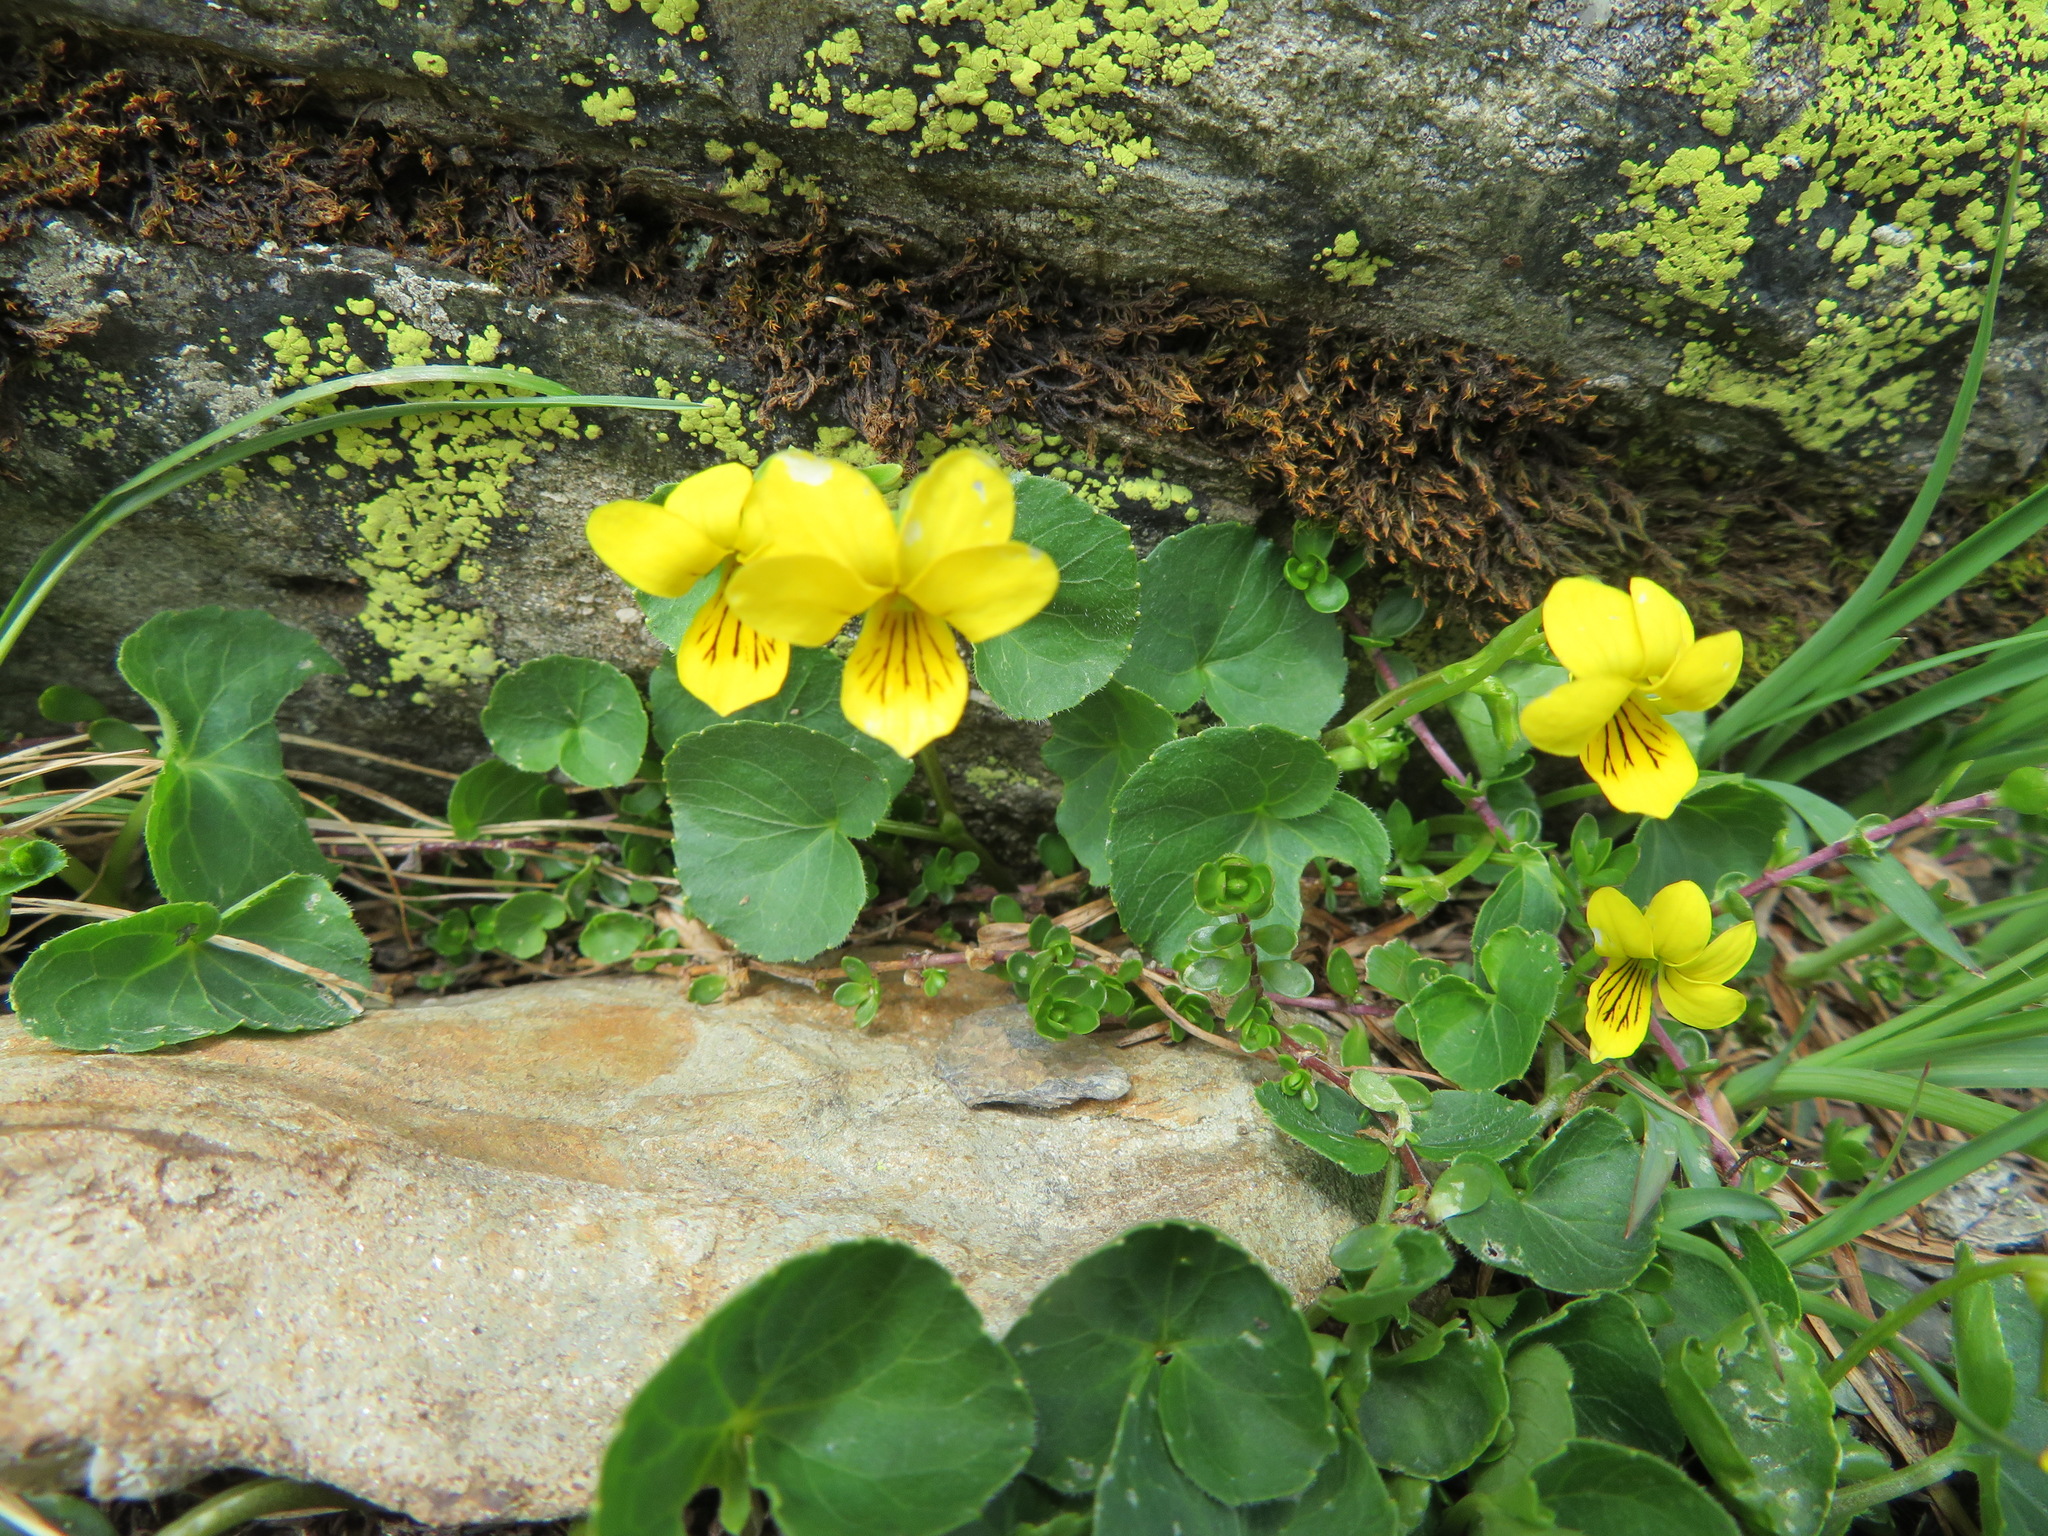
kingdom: Plantae
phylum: Tracheophyta
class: Magnoliopsida
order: Malpighiales
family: Violaceae
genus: Viola
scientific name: Viola biflora
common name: Alpine yellow violet
